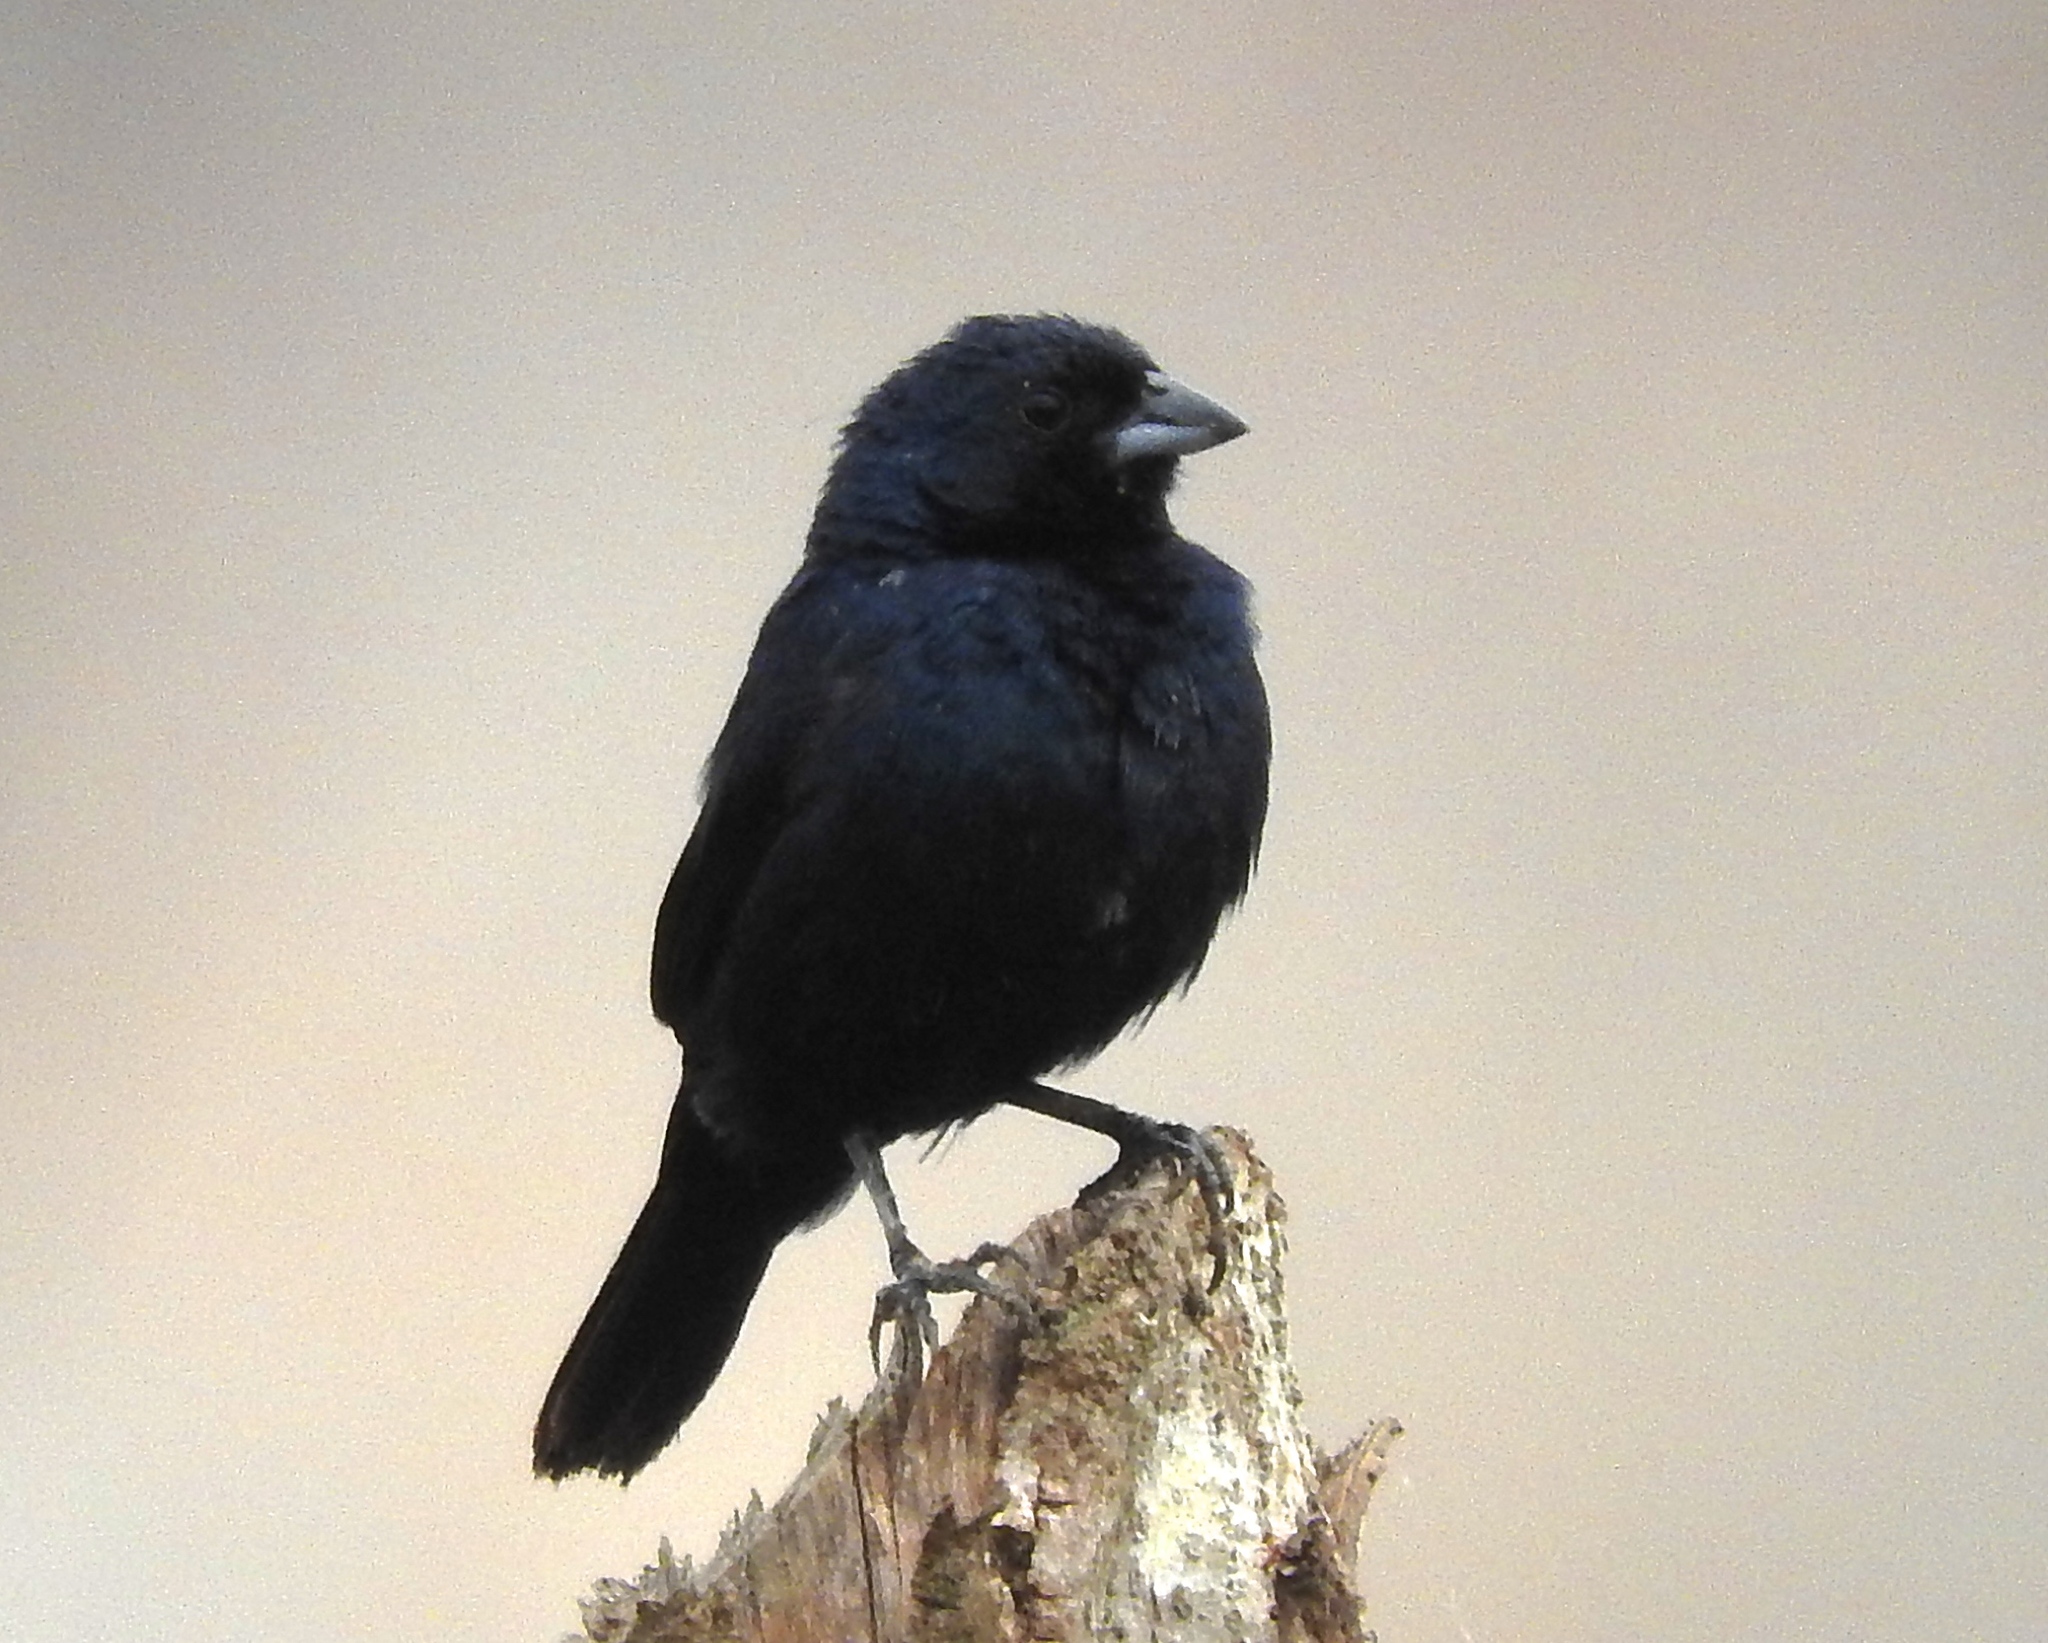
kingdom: Animalia
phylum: Chordata
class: Aves
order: Passeriformes
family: Thraupidae
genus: Volatinia
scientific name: Volatinia jacarina
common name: Blue-black grassquit
